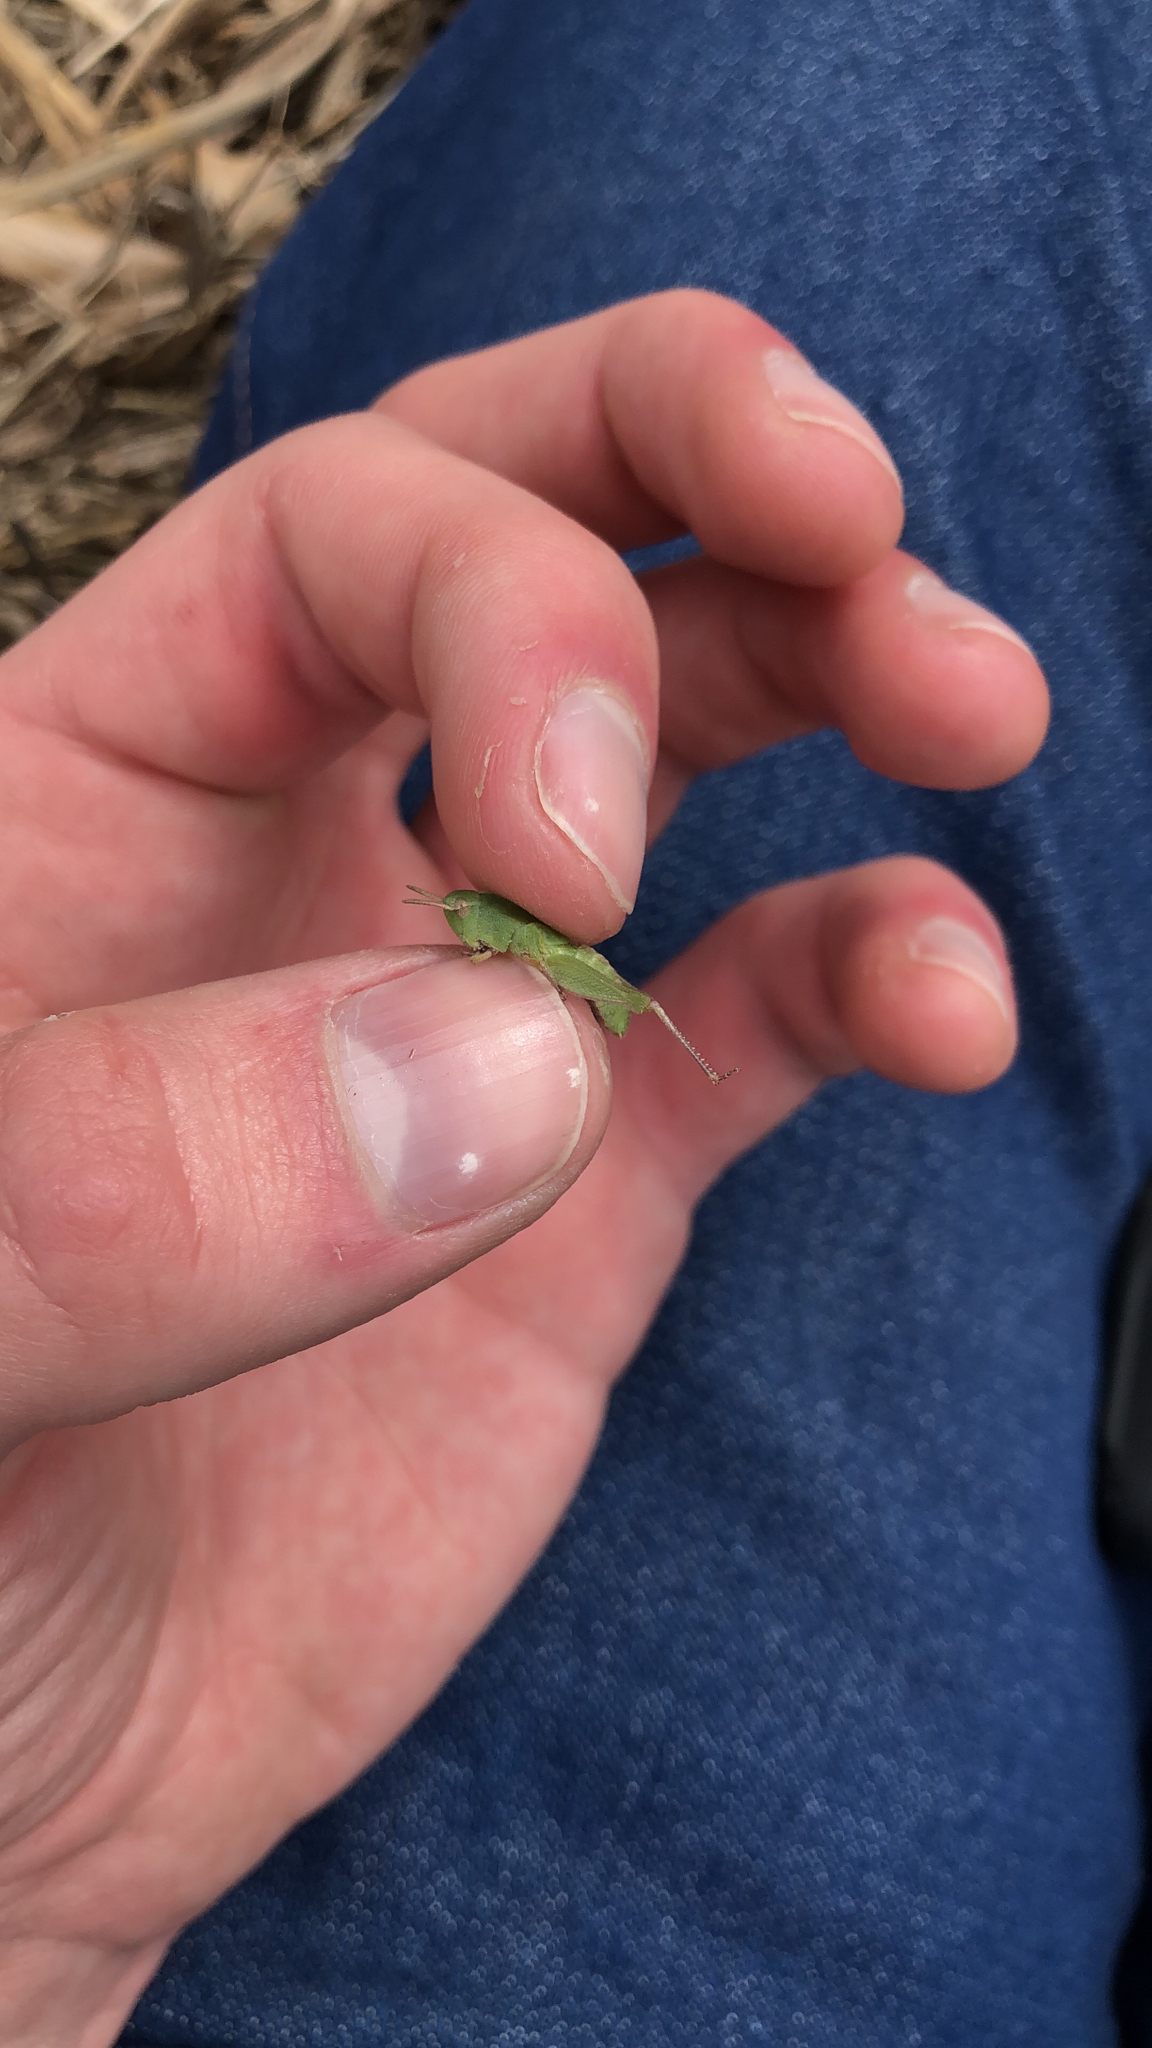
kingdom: Animalia
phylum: Arthropoda
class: Insecta
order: Orthoptera
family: Acrididae
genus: Chortophaga
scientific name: Chortophaga viridifasciata
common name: Green-striped grasshopper
